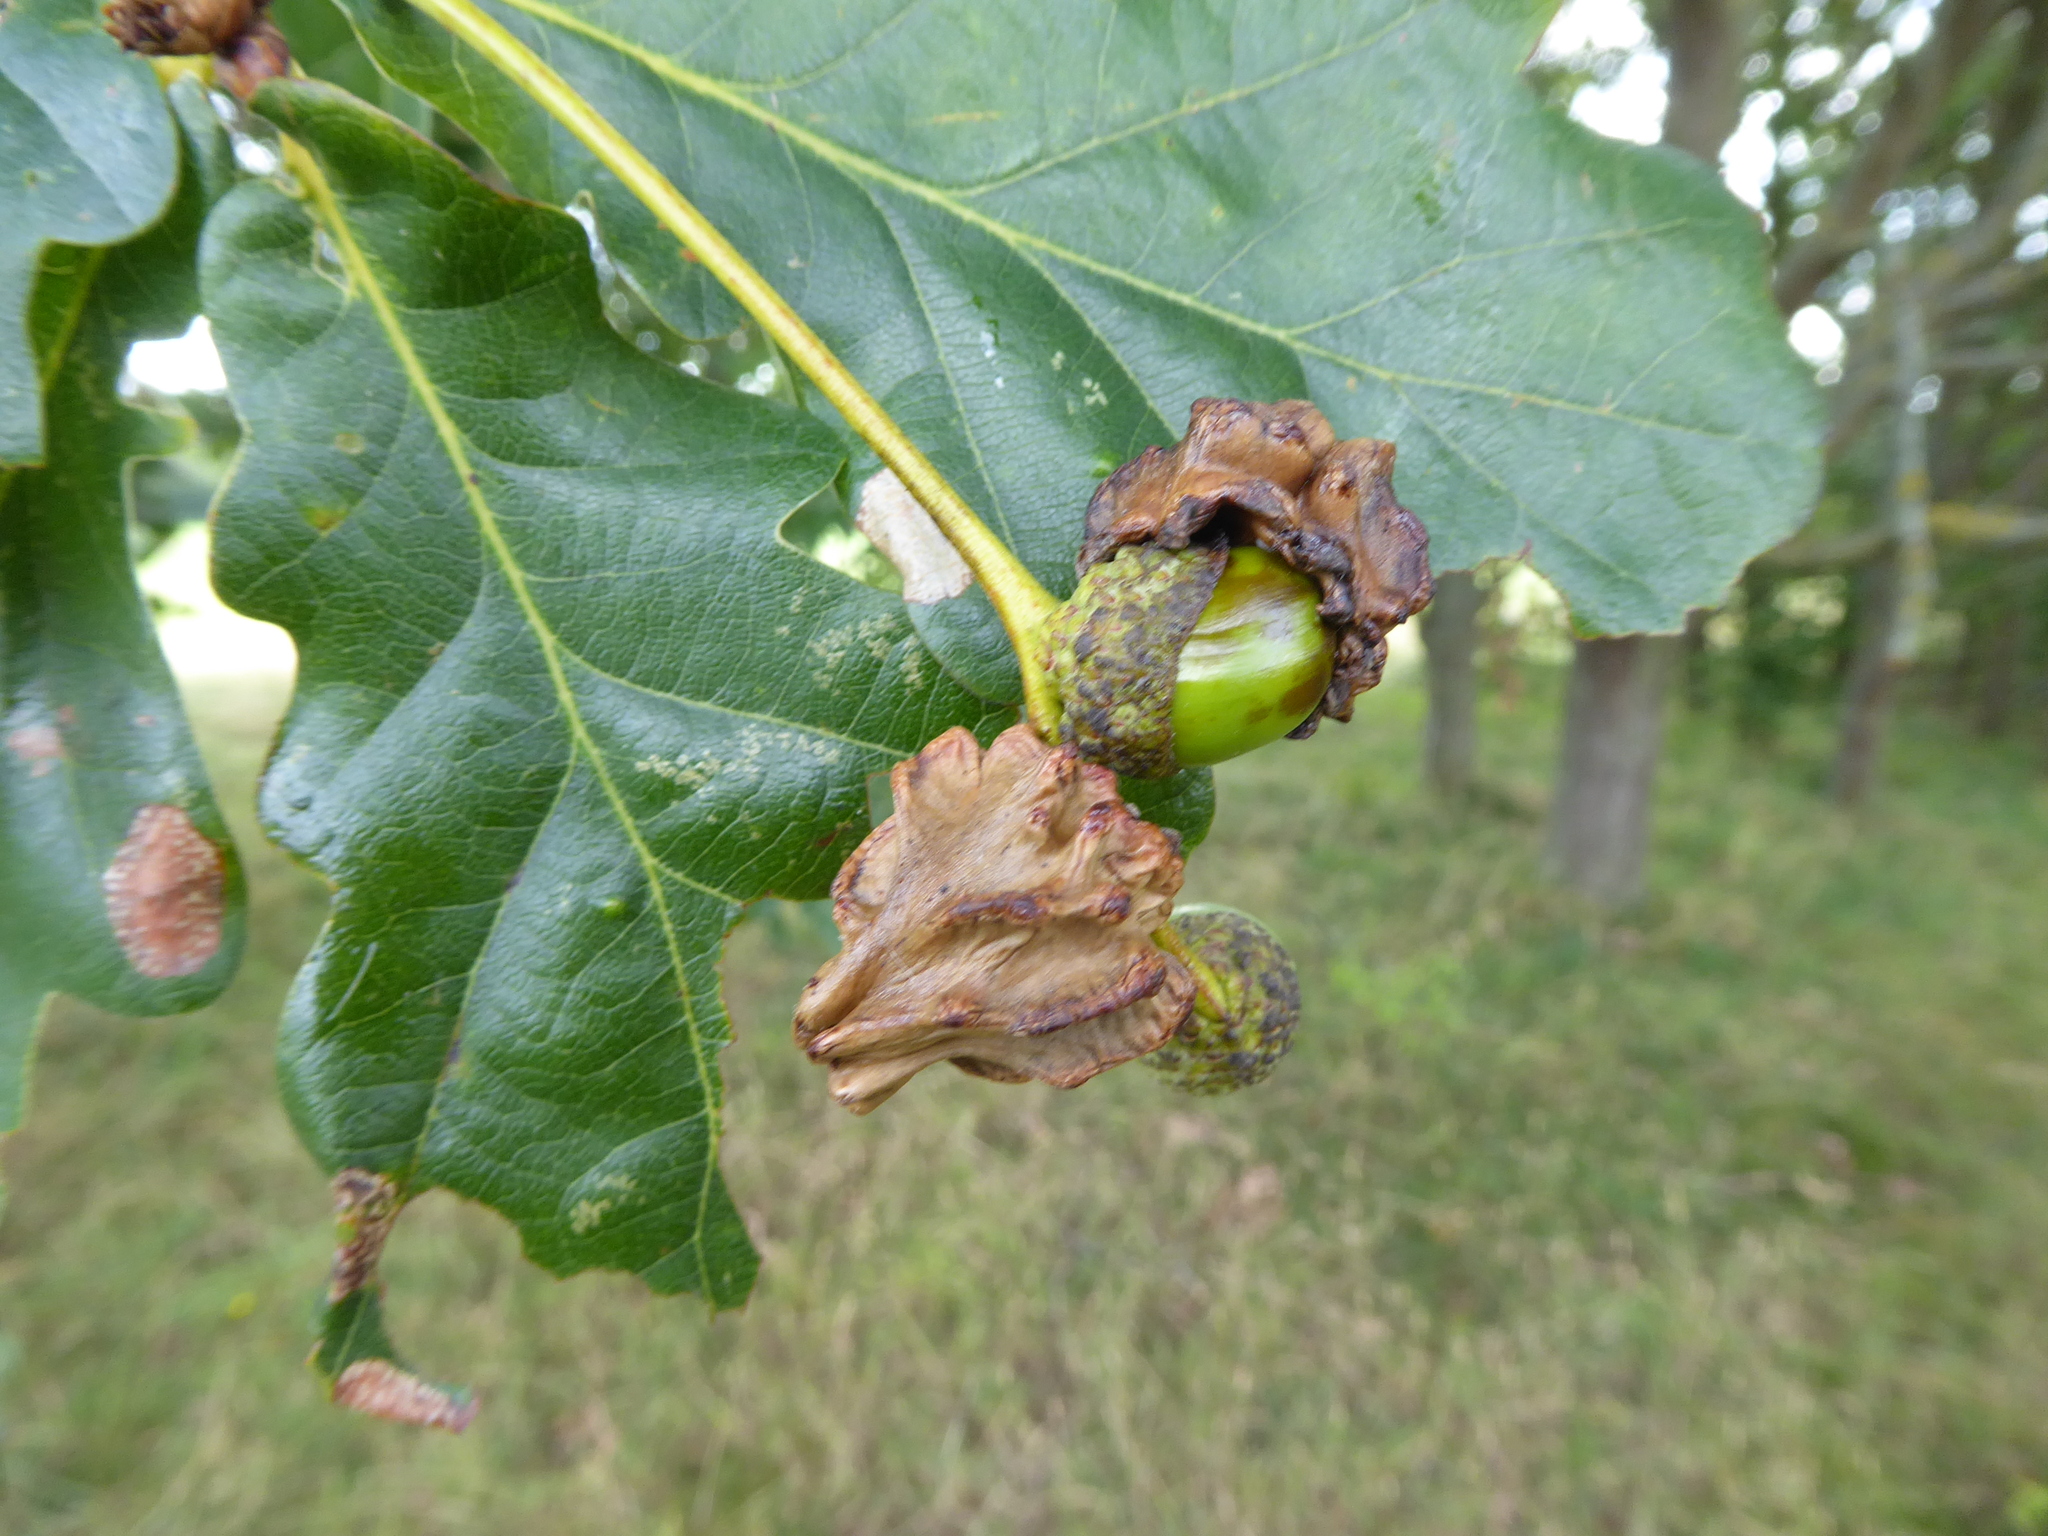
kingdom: Animalia
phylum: Arthropoda
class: Insecta
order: Hymenoptera
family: Cynipidae
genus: Andricus
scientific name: Andricus quercuscalicis
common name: Knopper gall
